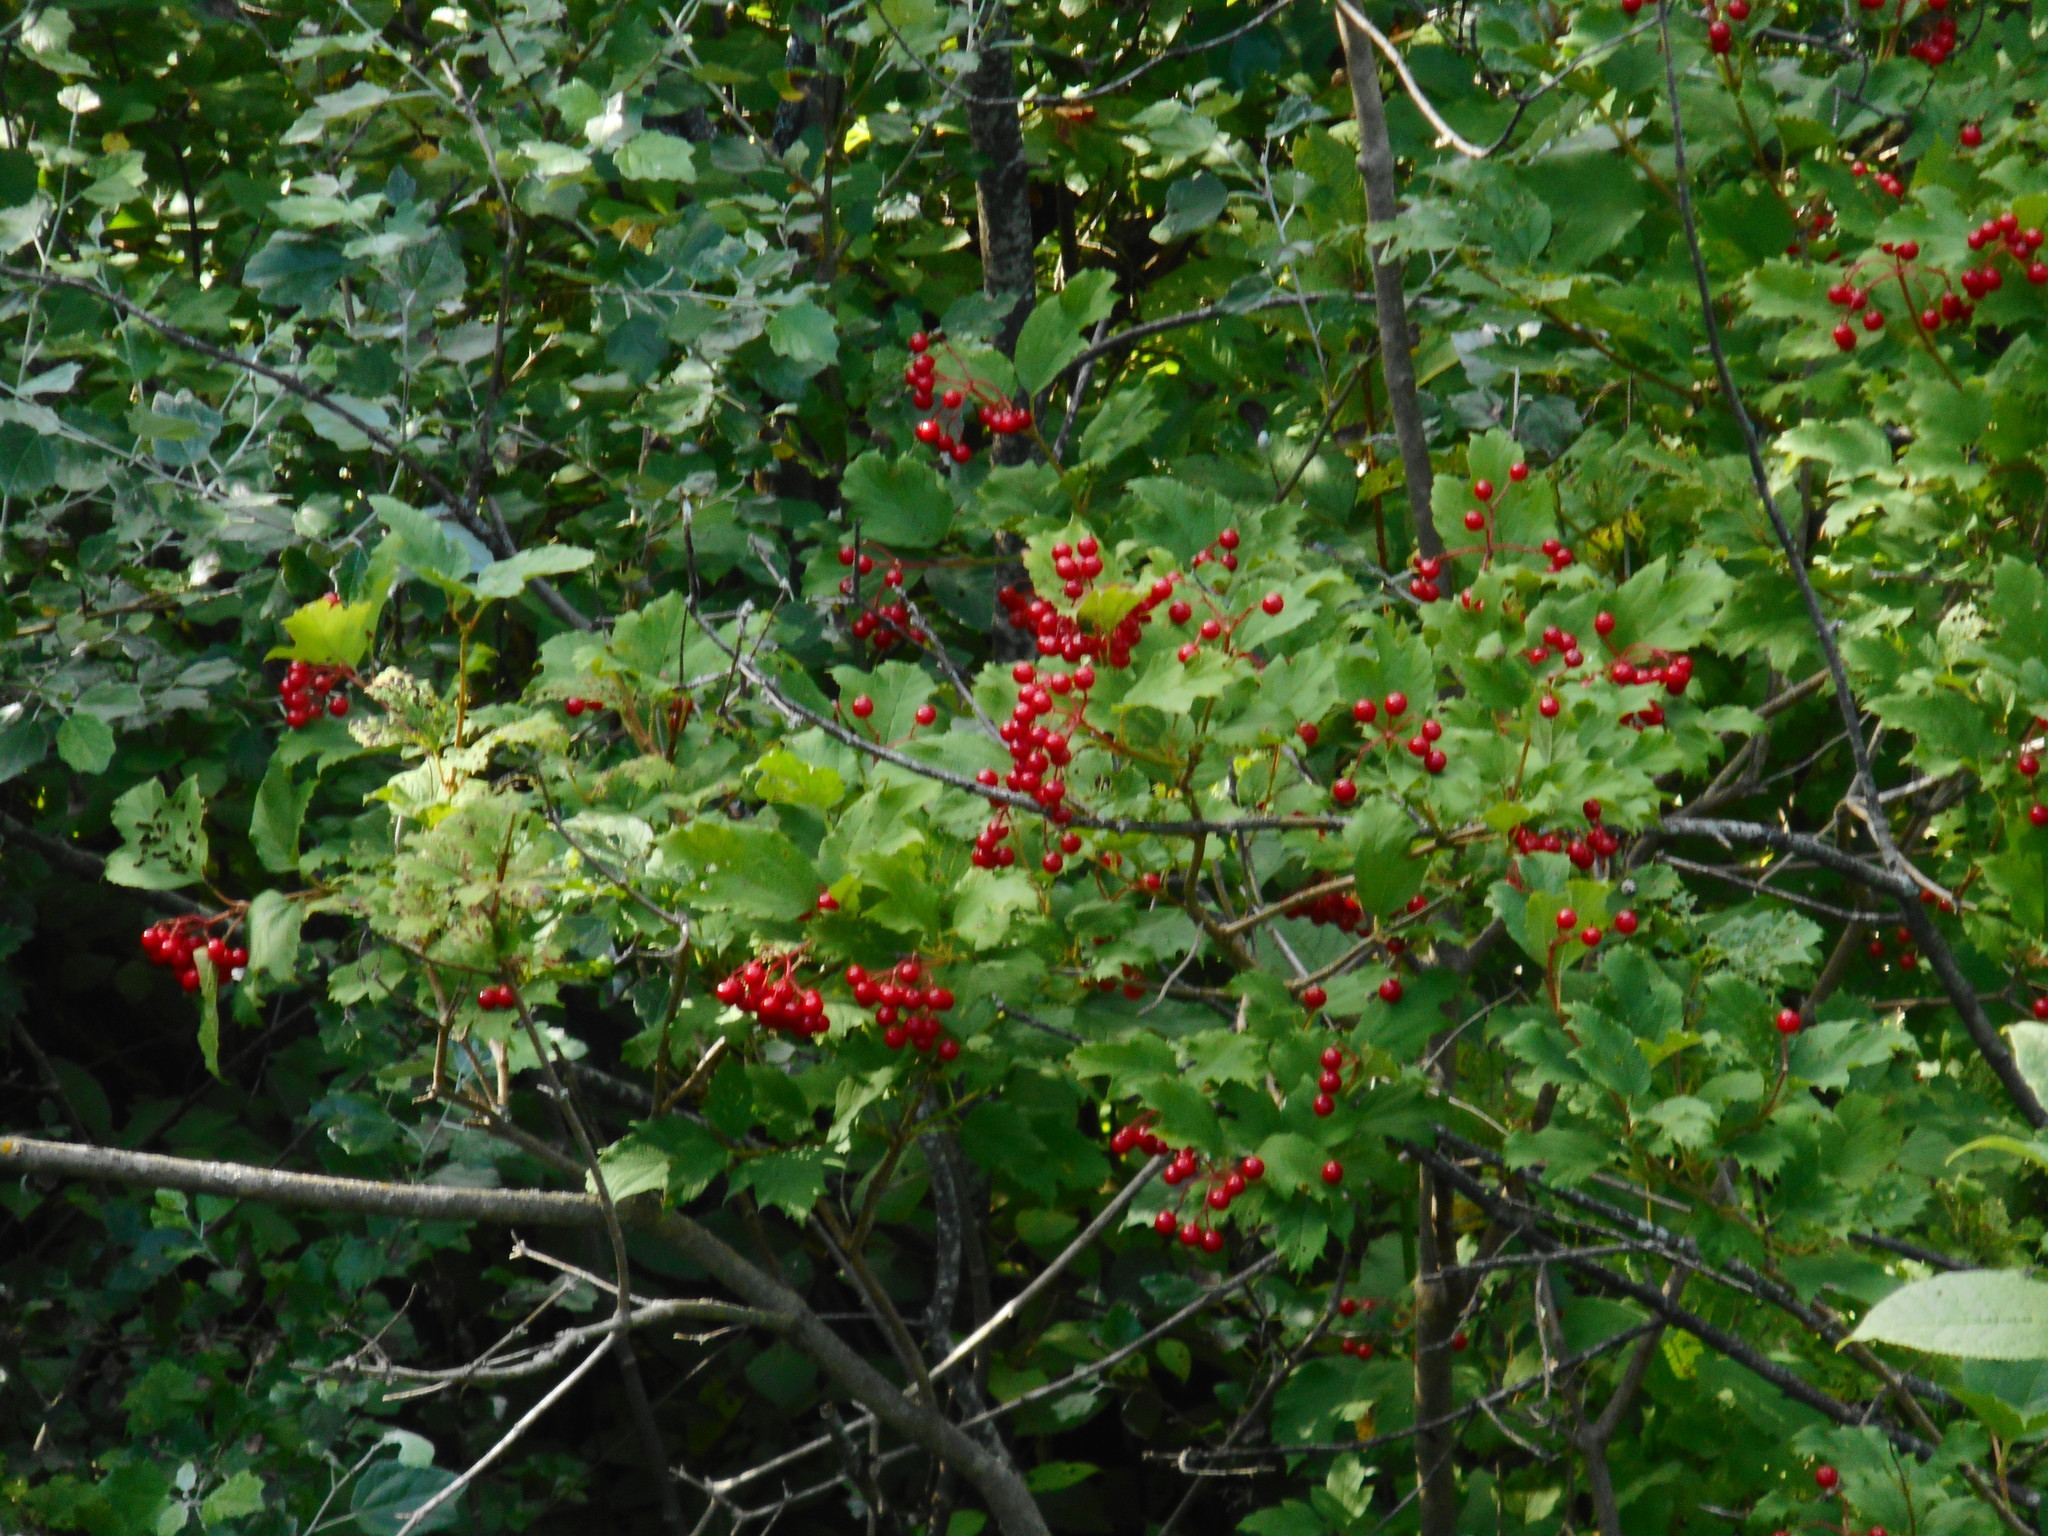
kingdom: Plantae
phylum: Tracheophyta
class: Magnoliopsida
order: Dipsacales
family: Viburnaceae
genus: Viburnum
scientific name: Viburnum opulus
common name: Guelder-rose
